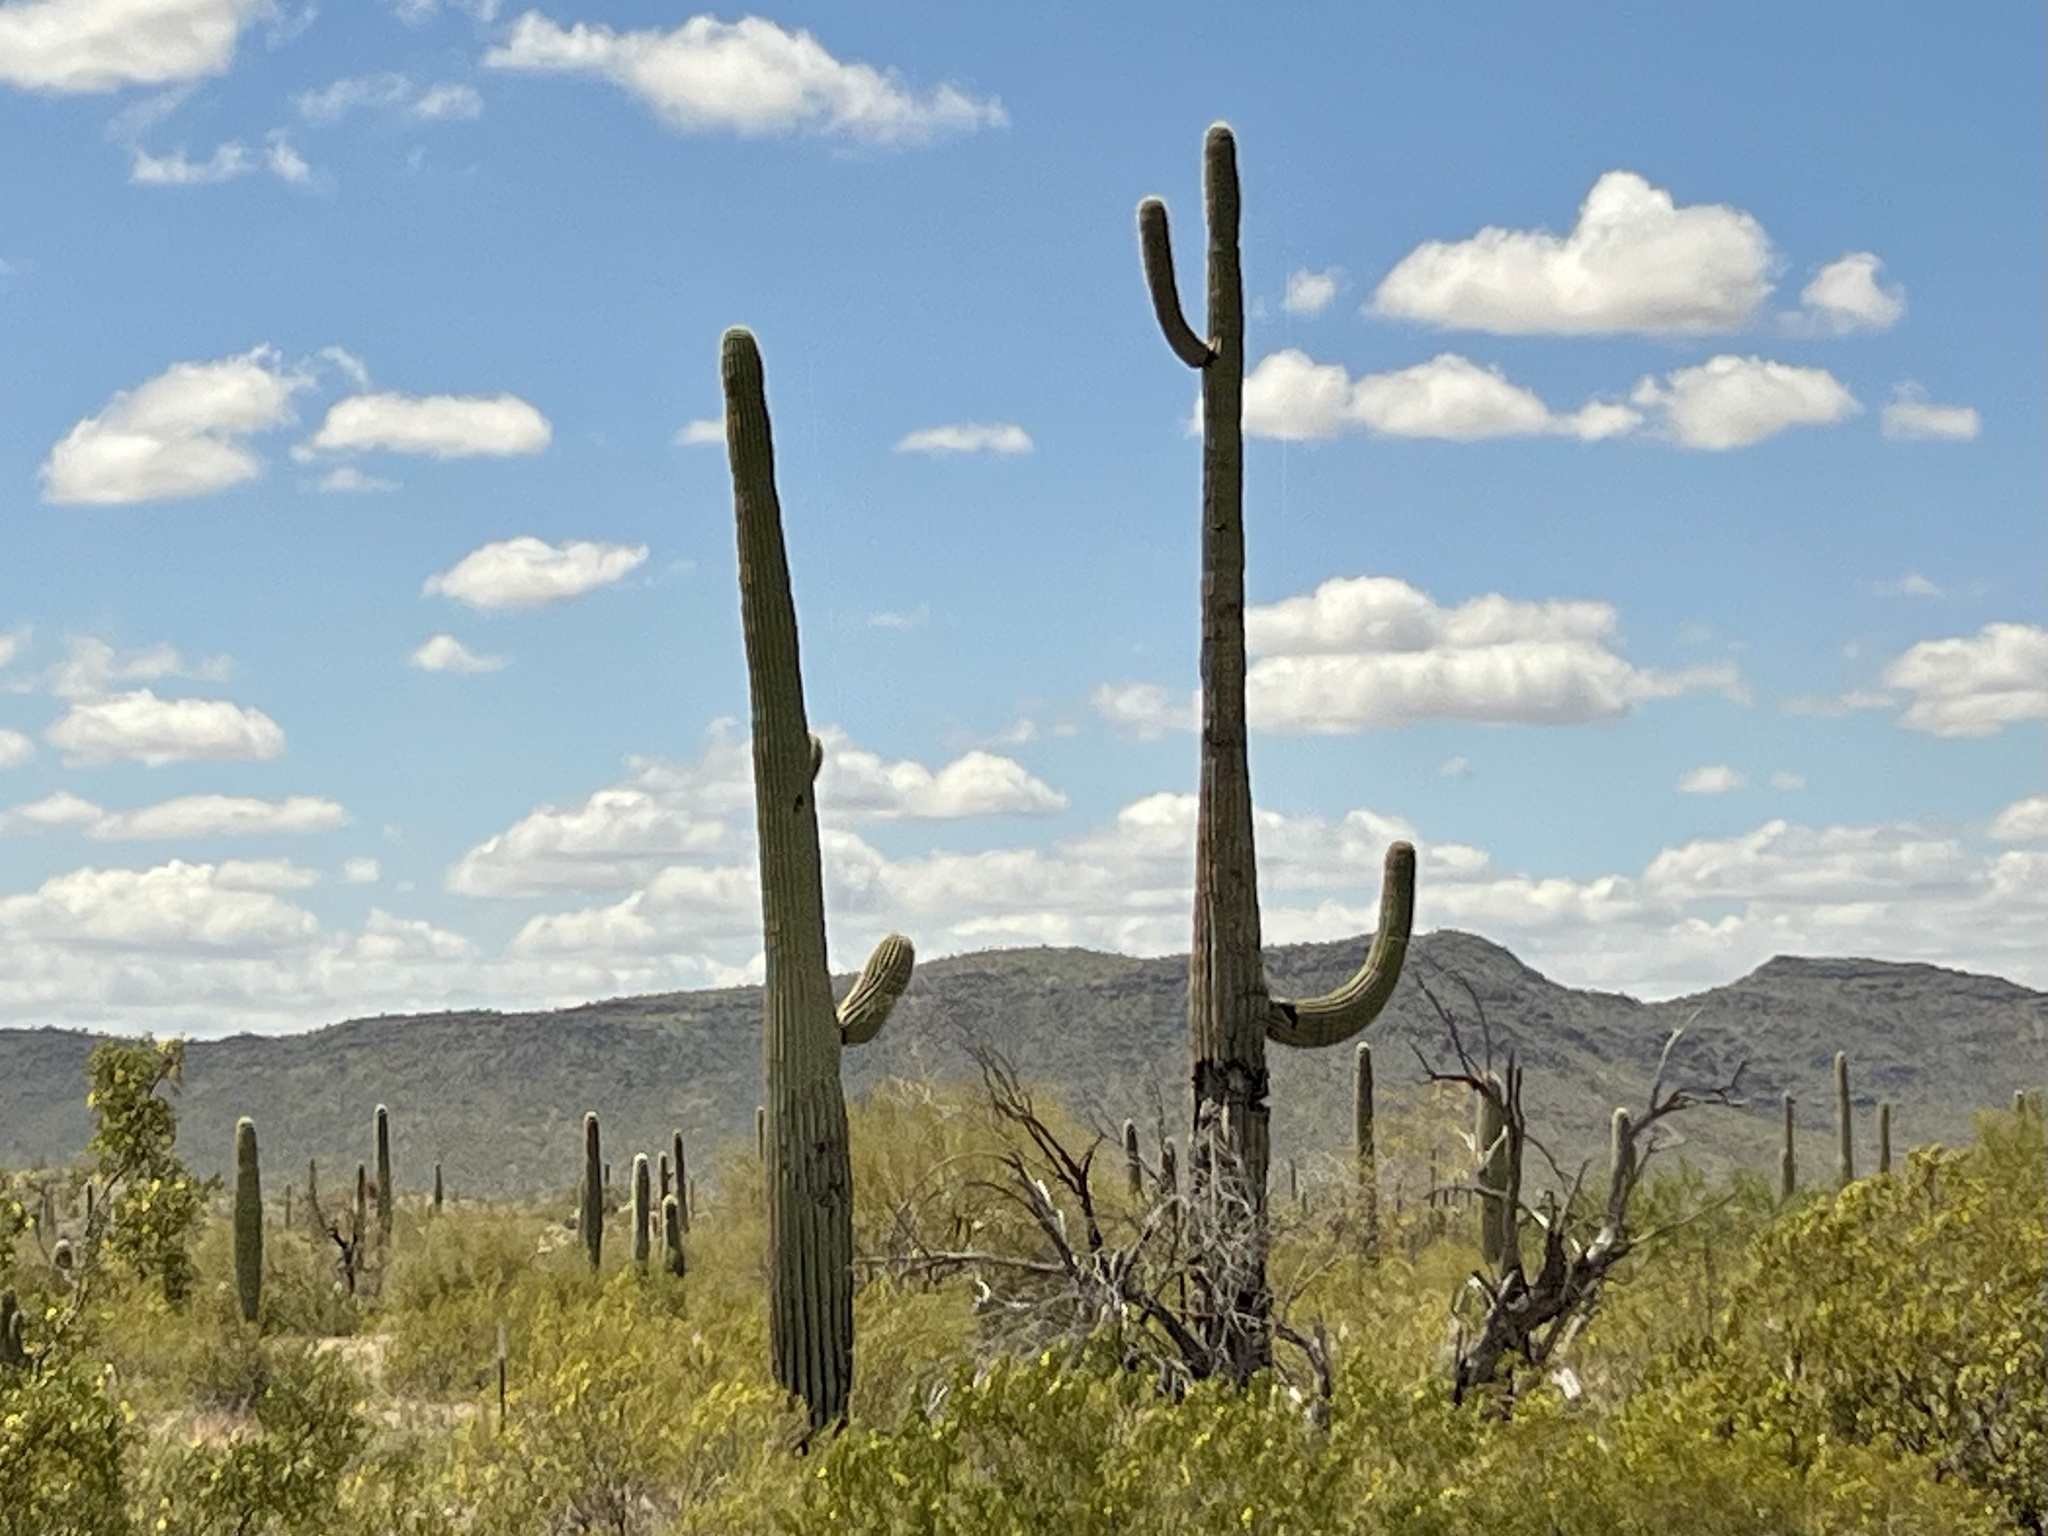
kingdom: Plantae
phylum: Tracheophyta
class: Magnoliopsida
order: Caryophyllales
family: Cactaceae
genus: Carnegiea
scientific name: Carnegiea gigantea
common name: Saguaro
